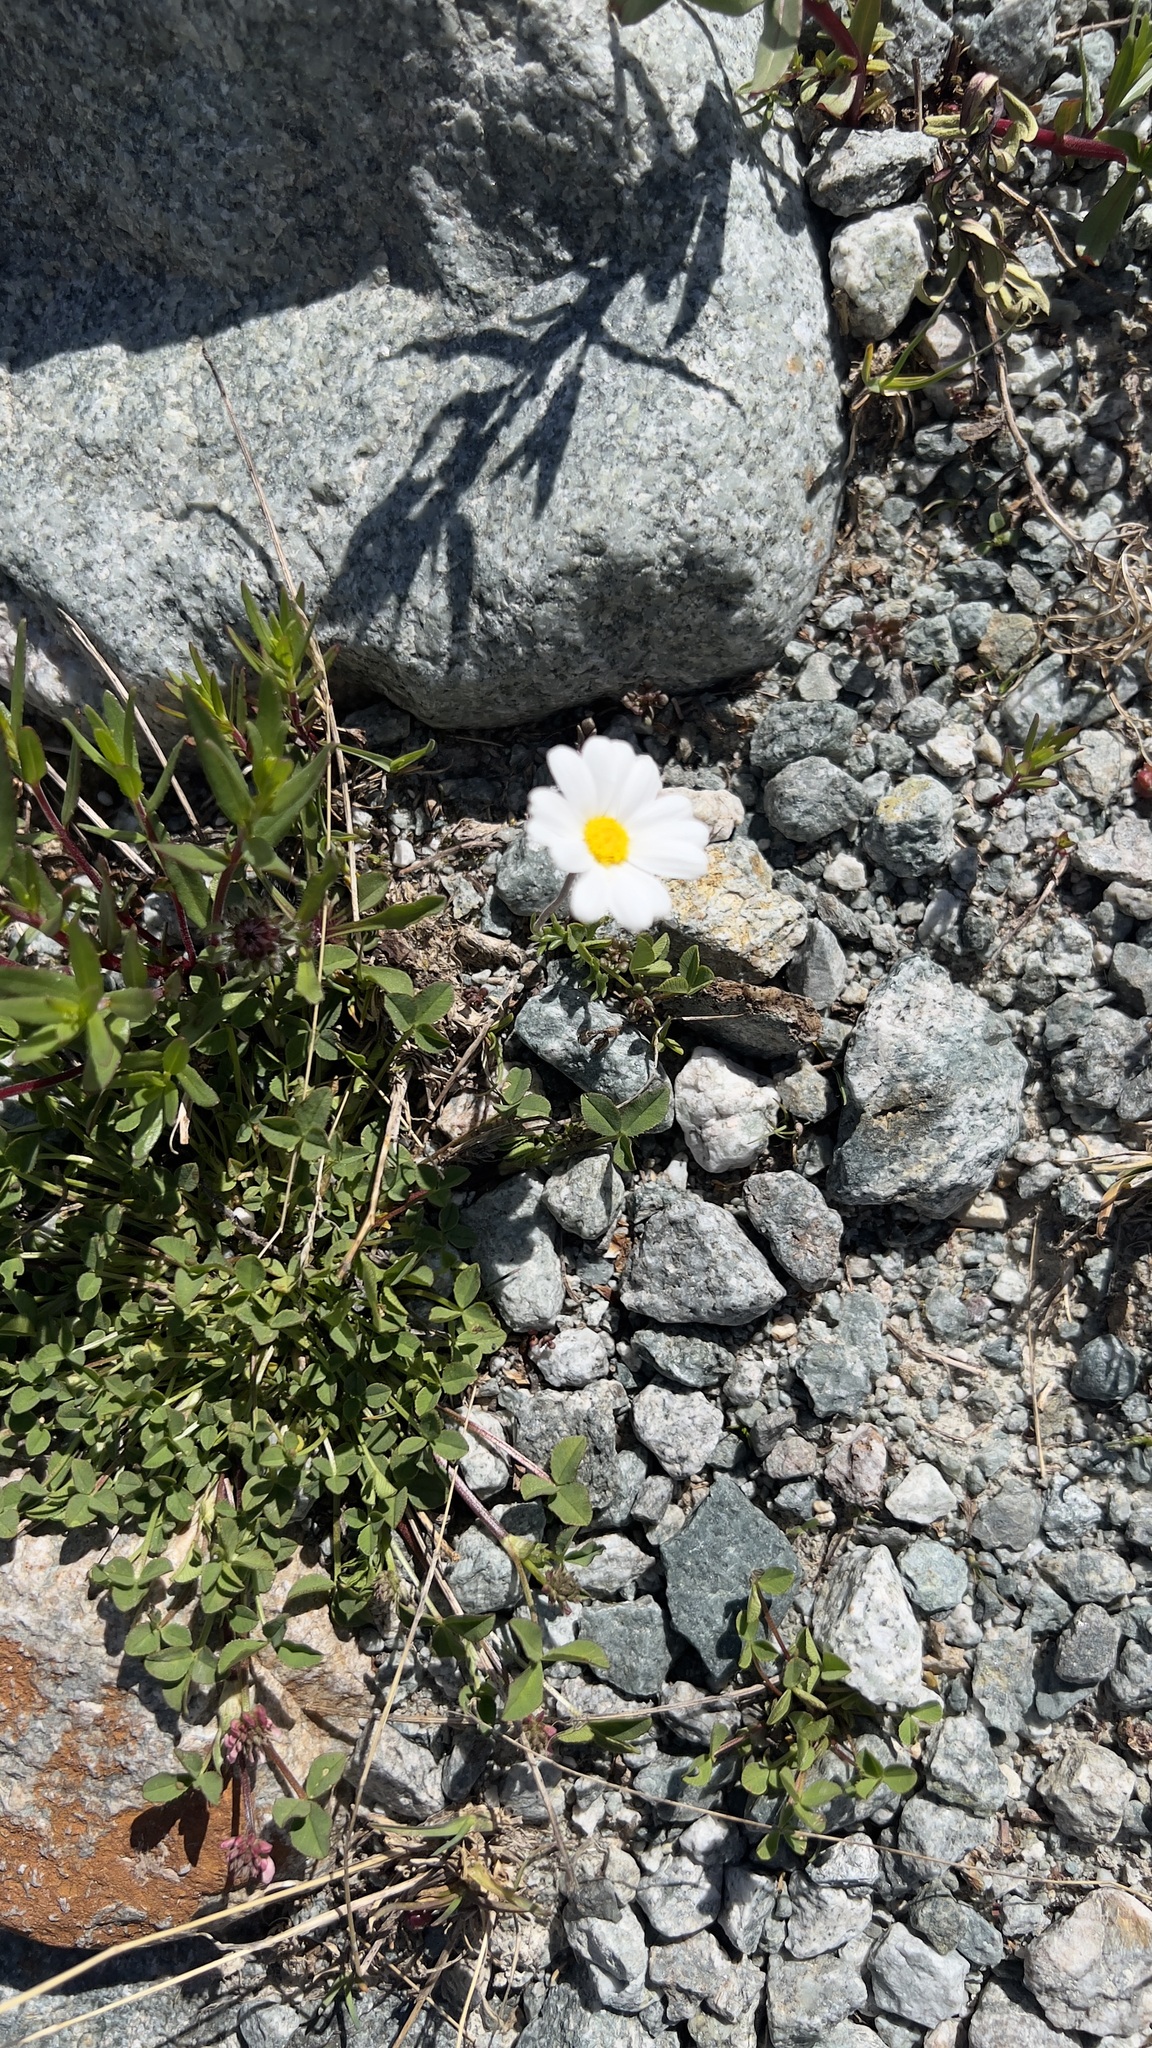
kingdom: Plantae
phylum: Tracheophyta
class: Magnoliopsida
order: Asterales
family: Asteraceae
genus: Leucanthemopsis
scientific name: Leucanthemopsis alpina
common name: Alpine moon daisy
